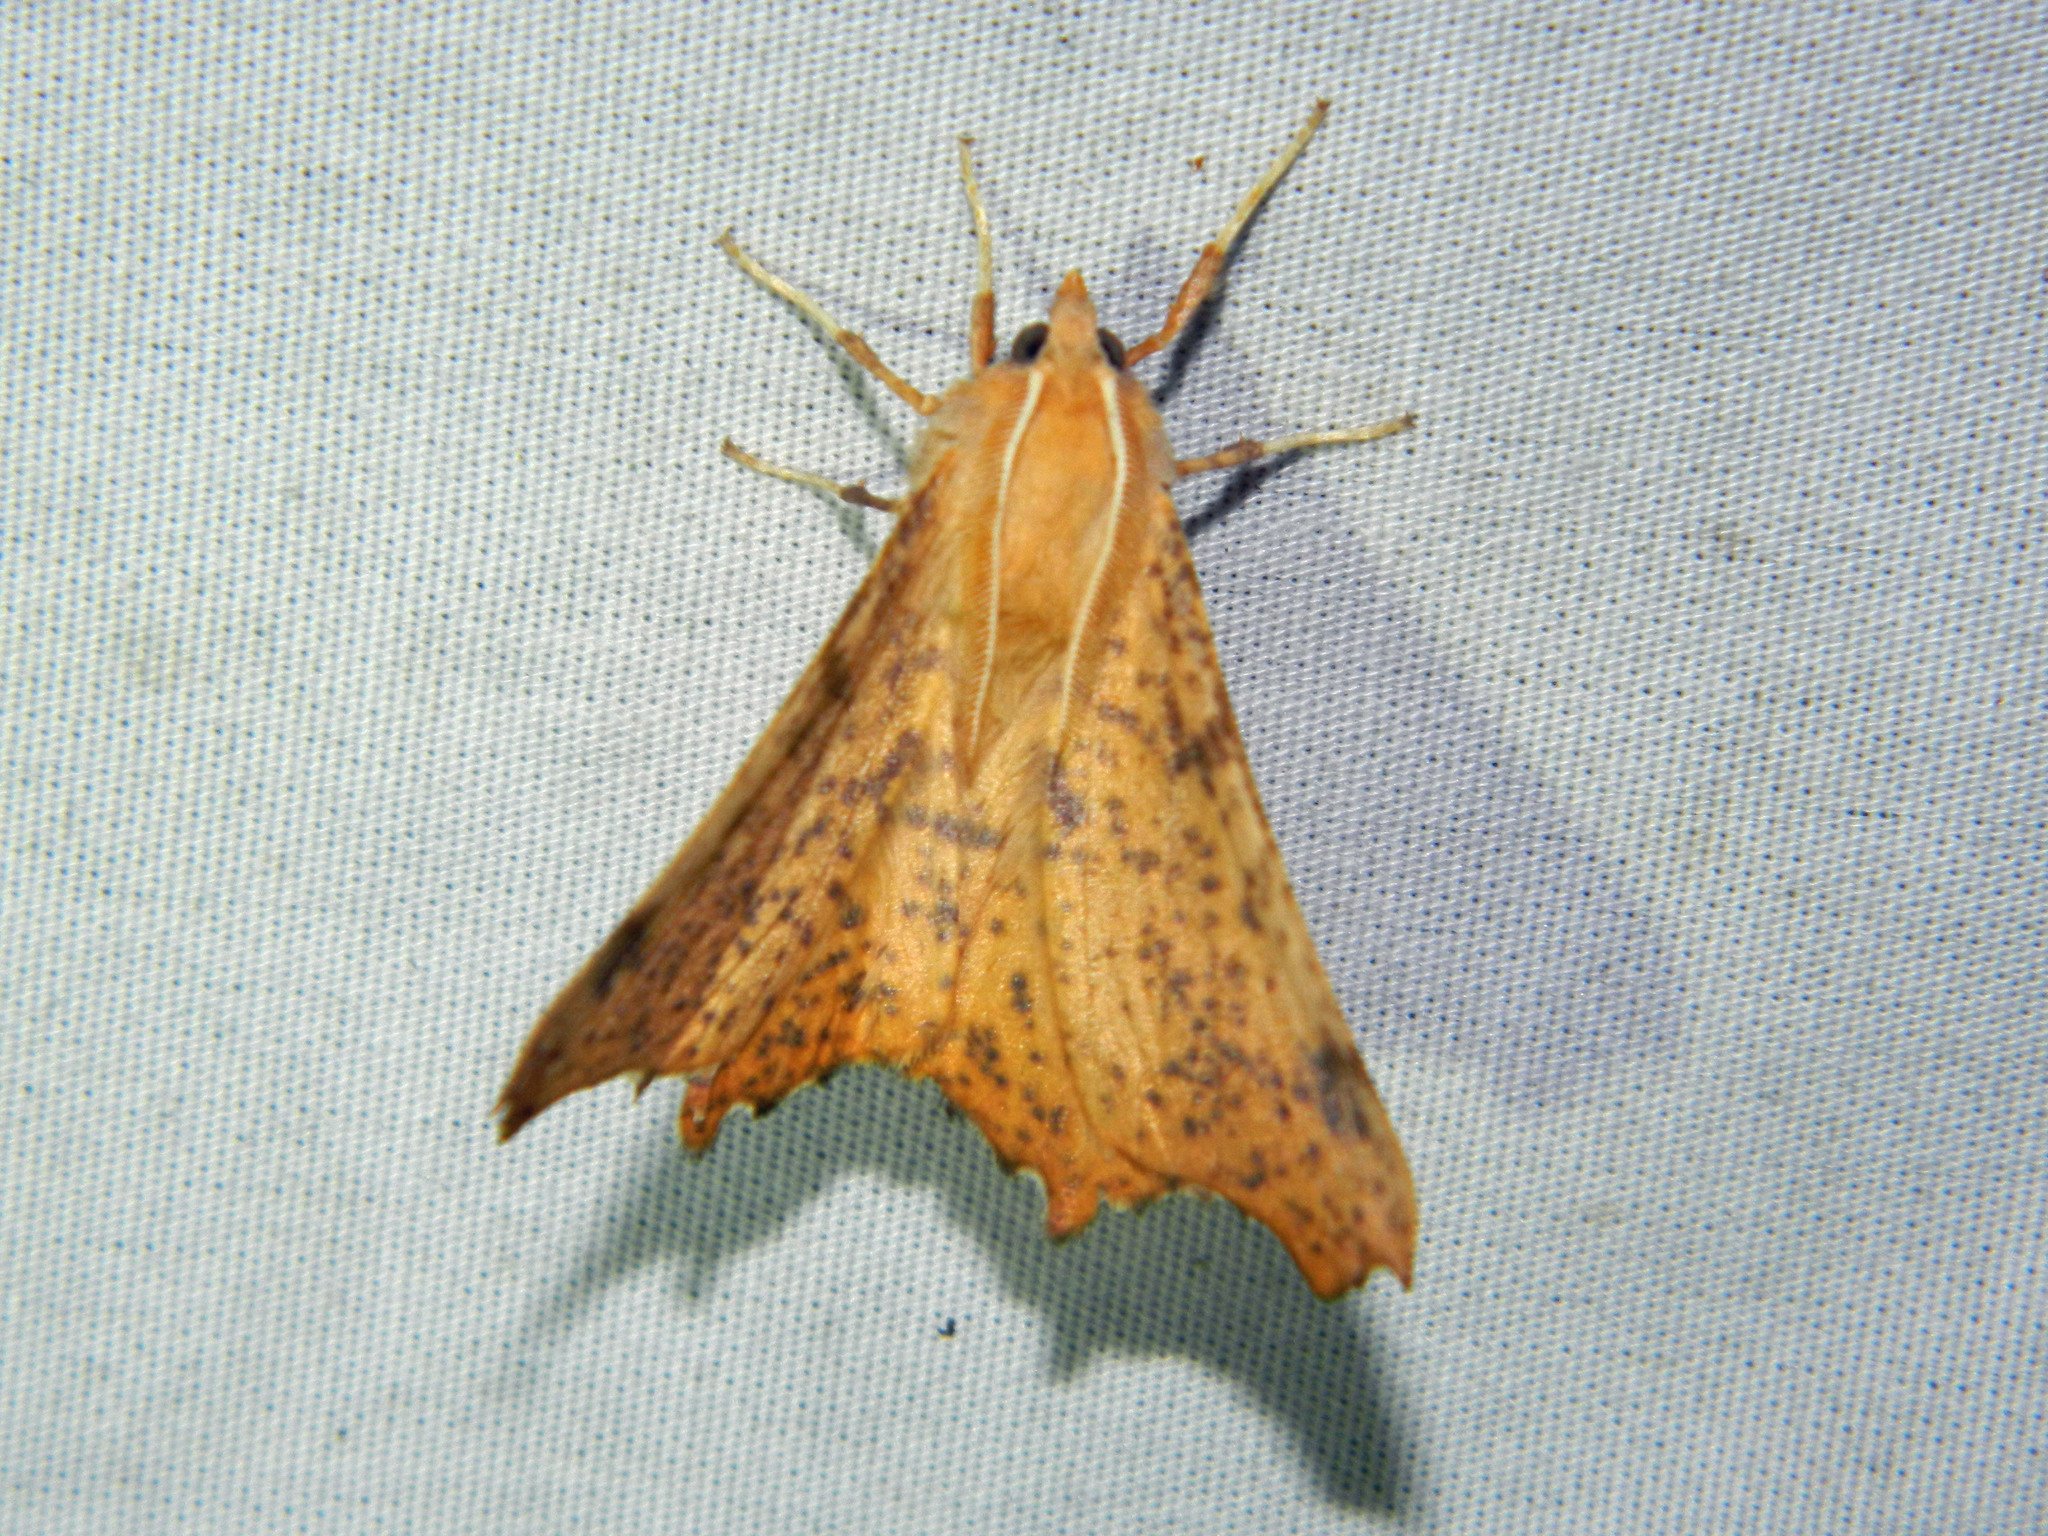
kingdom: Animalia
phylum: Arthropoda
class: Insecta
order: Lepidoptera
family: Geometridae
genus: Ennomos
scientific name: Ennomos magnaria
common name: Maple spanworm
